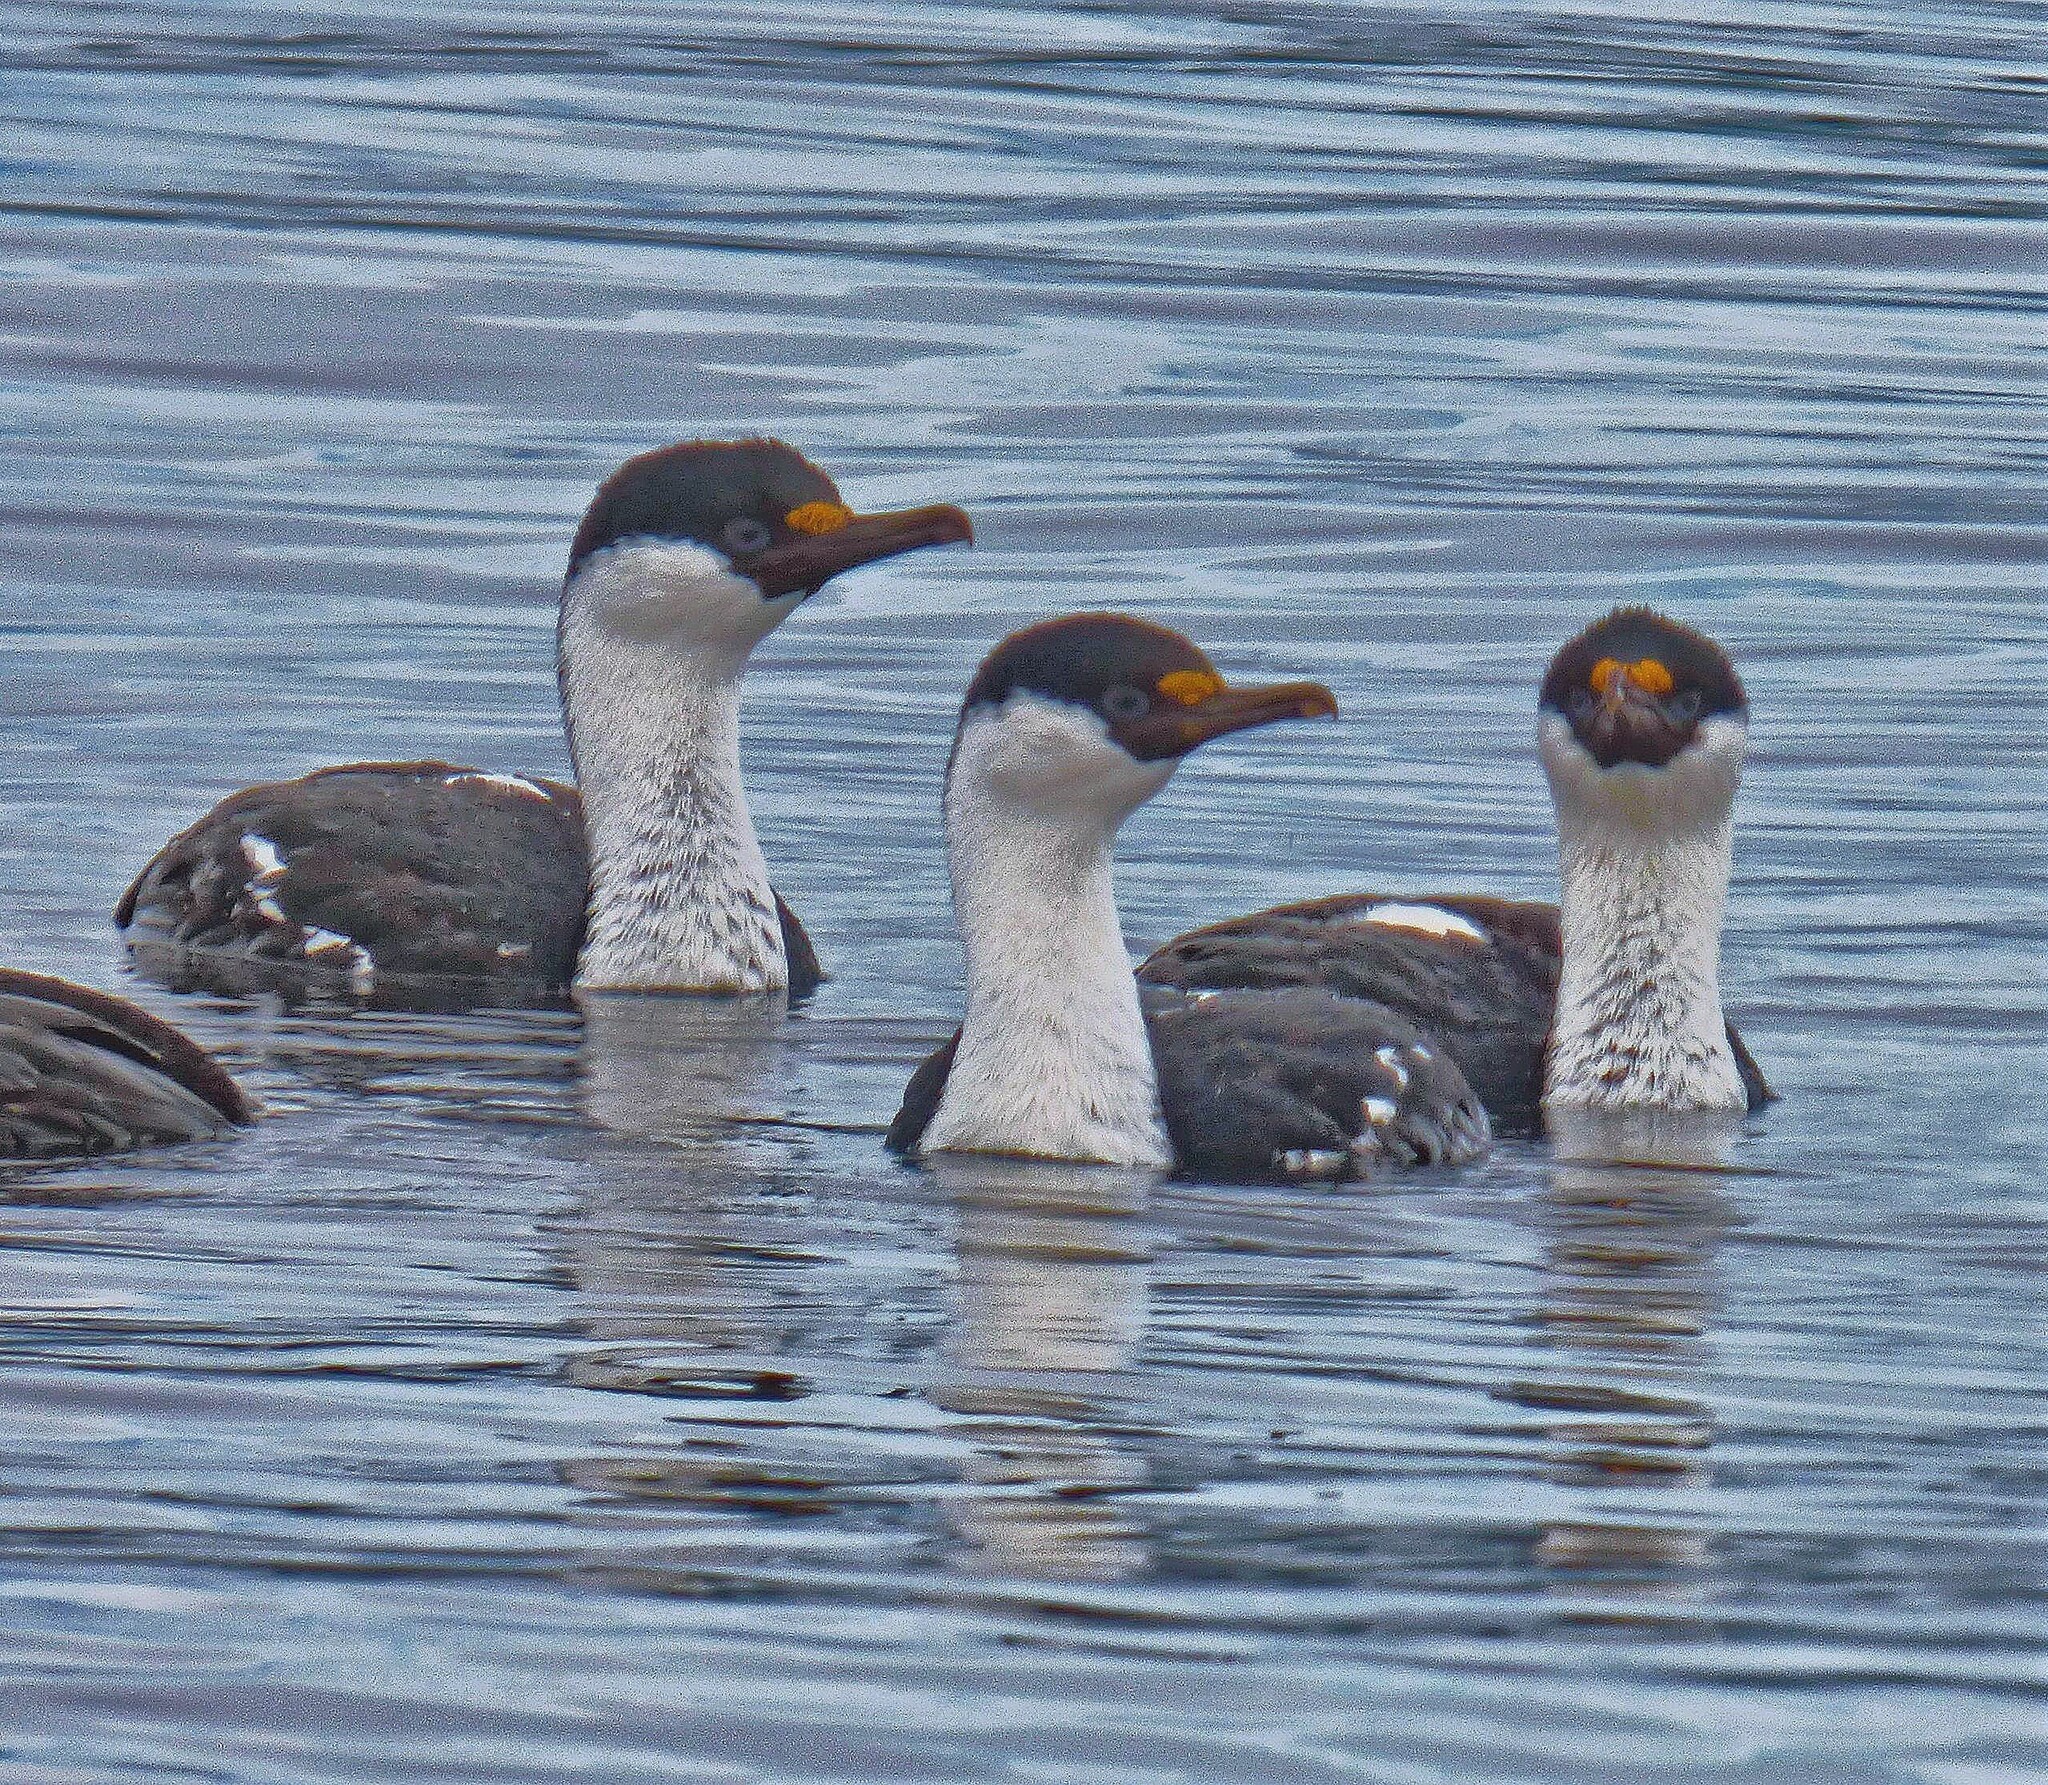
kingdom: Animalia
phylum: Chordata
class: Aves
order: Suliformes
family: Phalacrocoracidae
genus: Leucocarbo
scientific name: Leucocarbo atriceps
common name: Imperial shag
